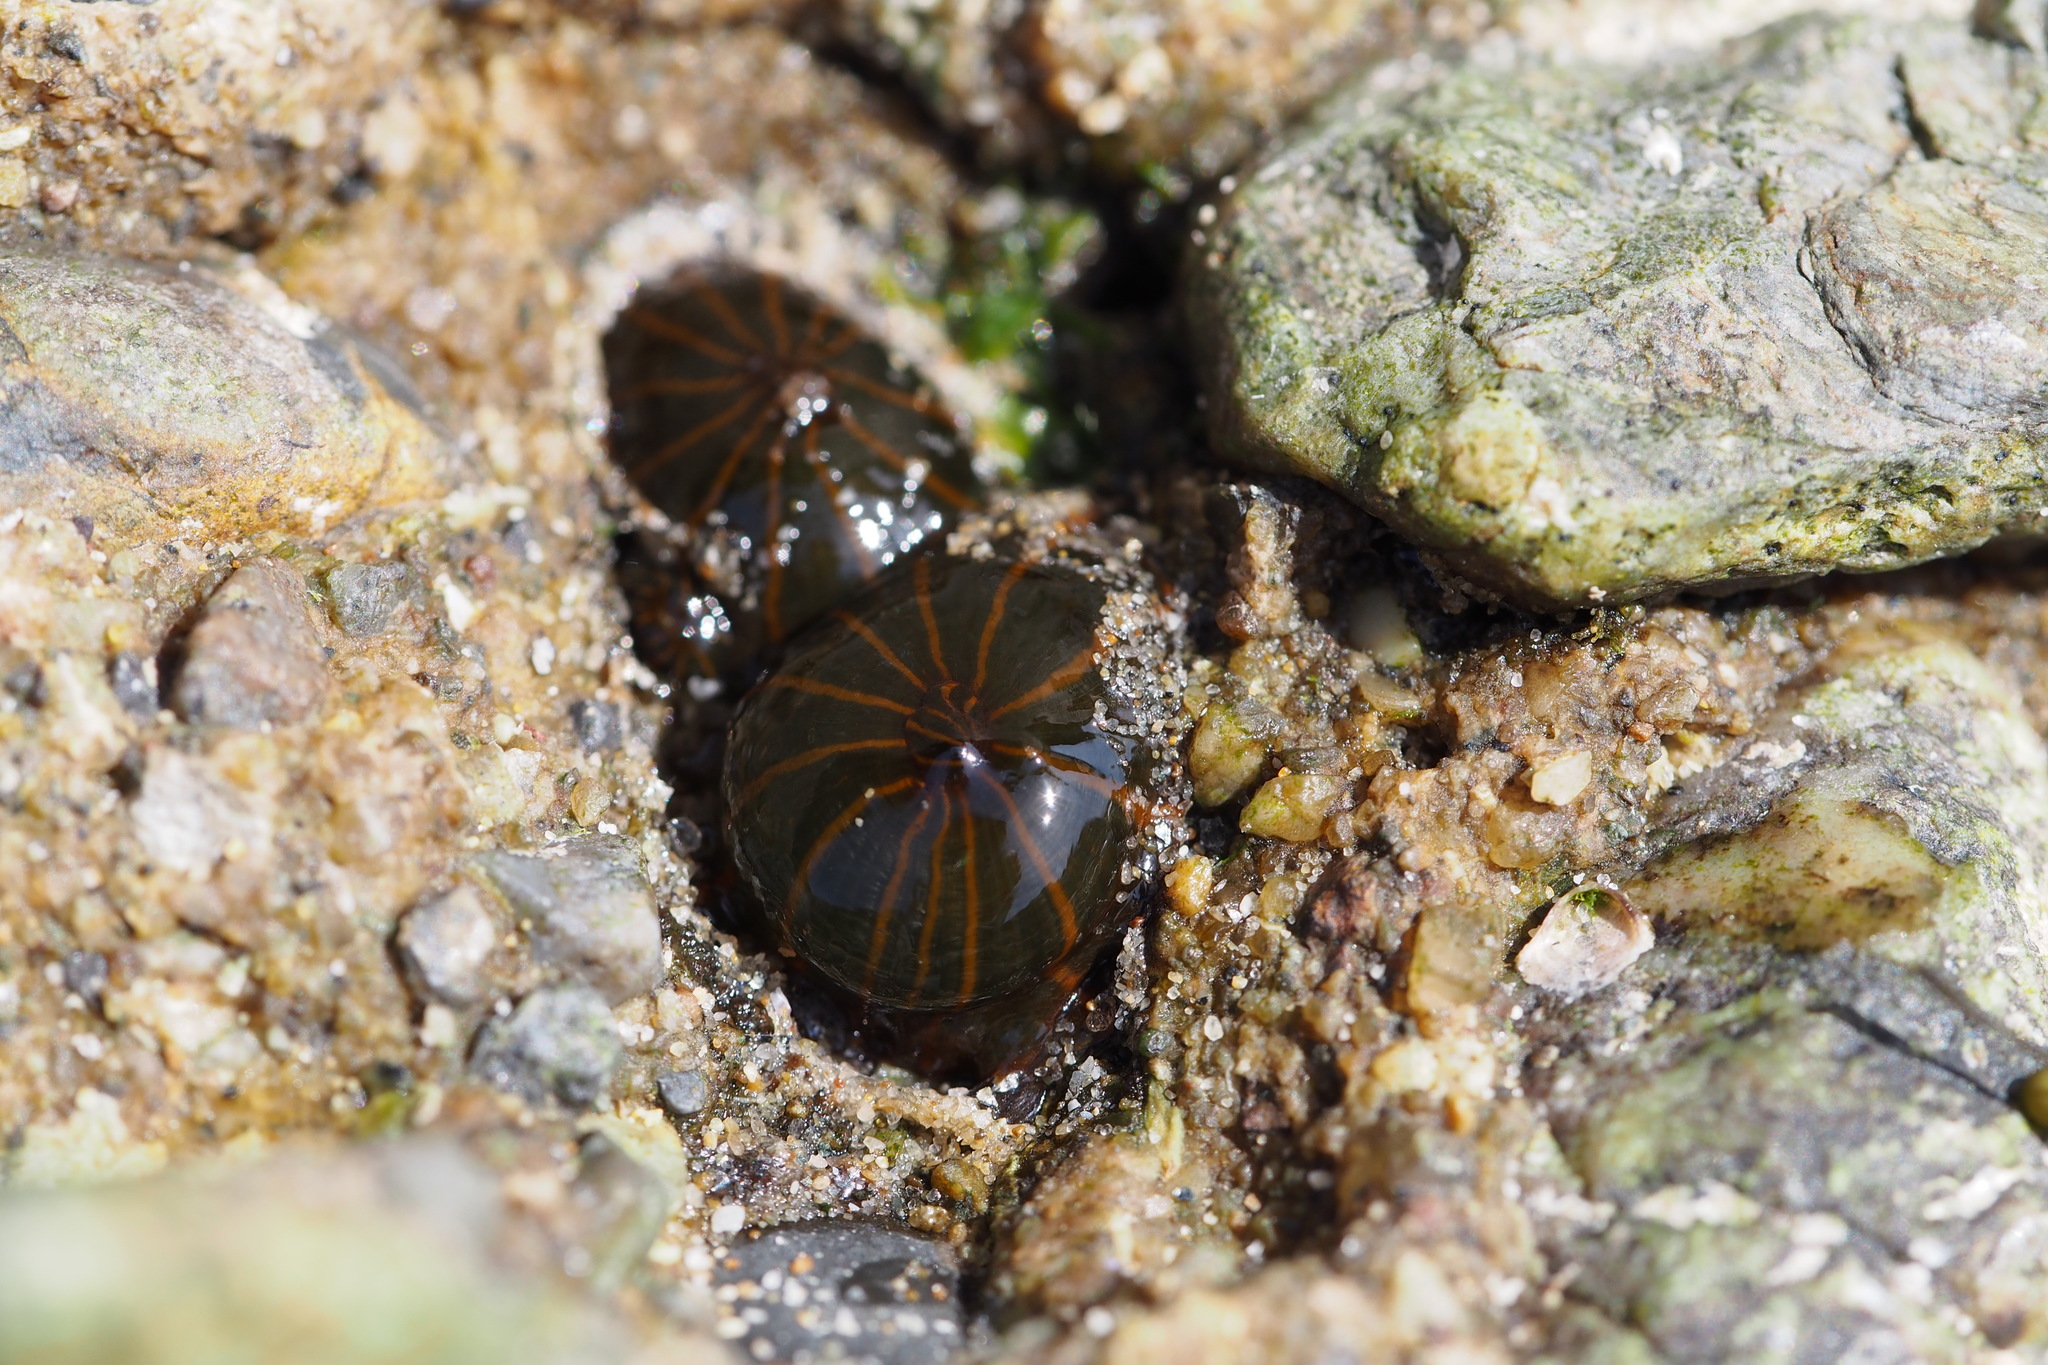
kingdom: Animalia
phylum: Cnidaria
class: Anthozoa
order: Actiniaria
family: Diadumenidae
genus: Diadumene
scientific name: Diadumene lineata
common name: Orange-striped anemone
